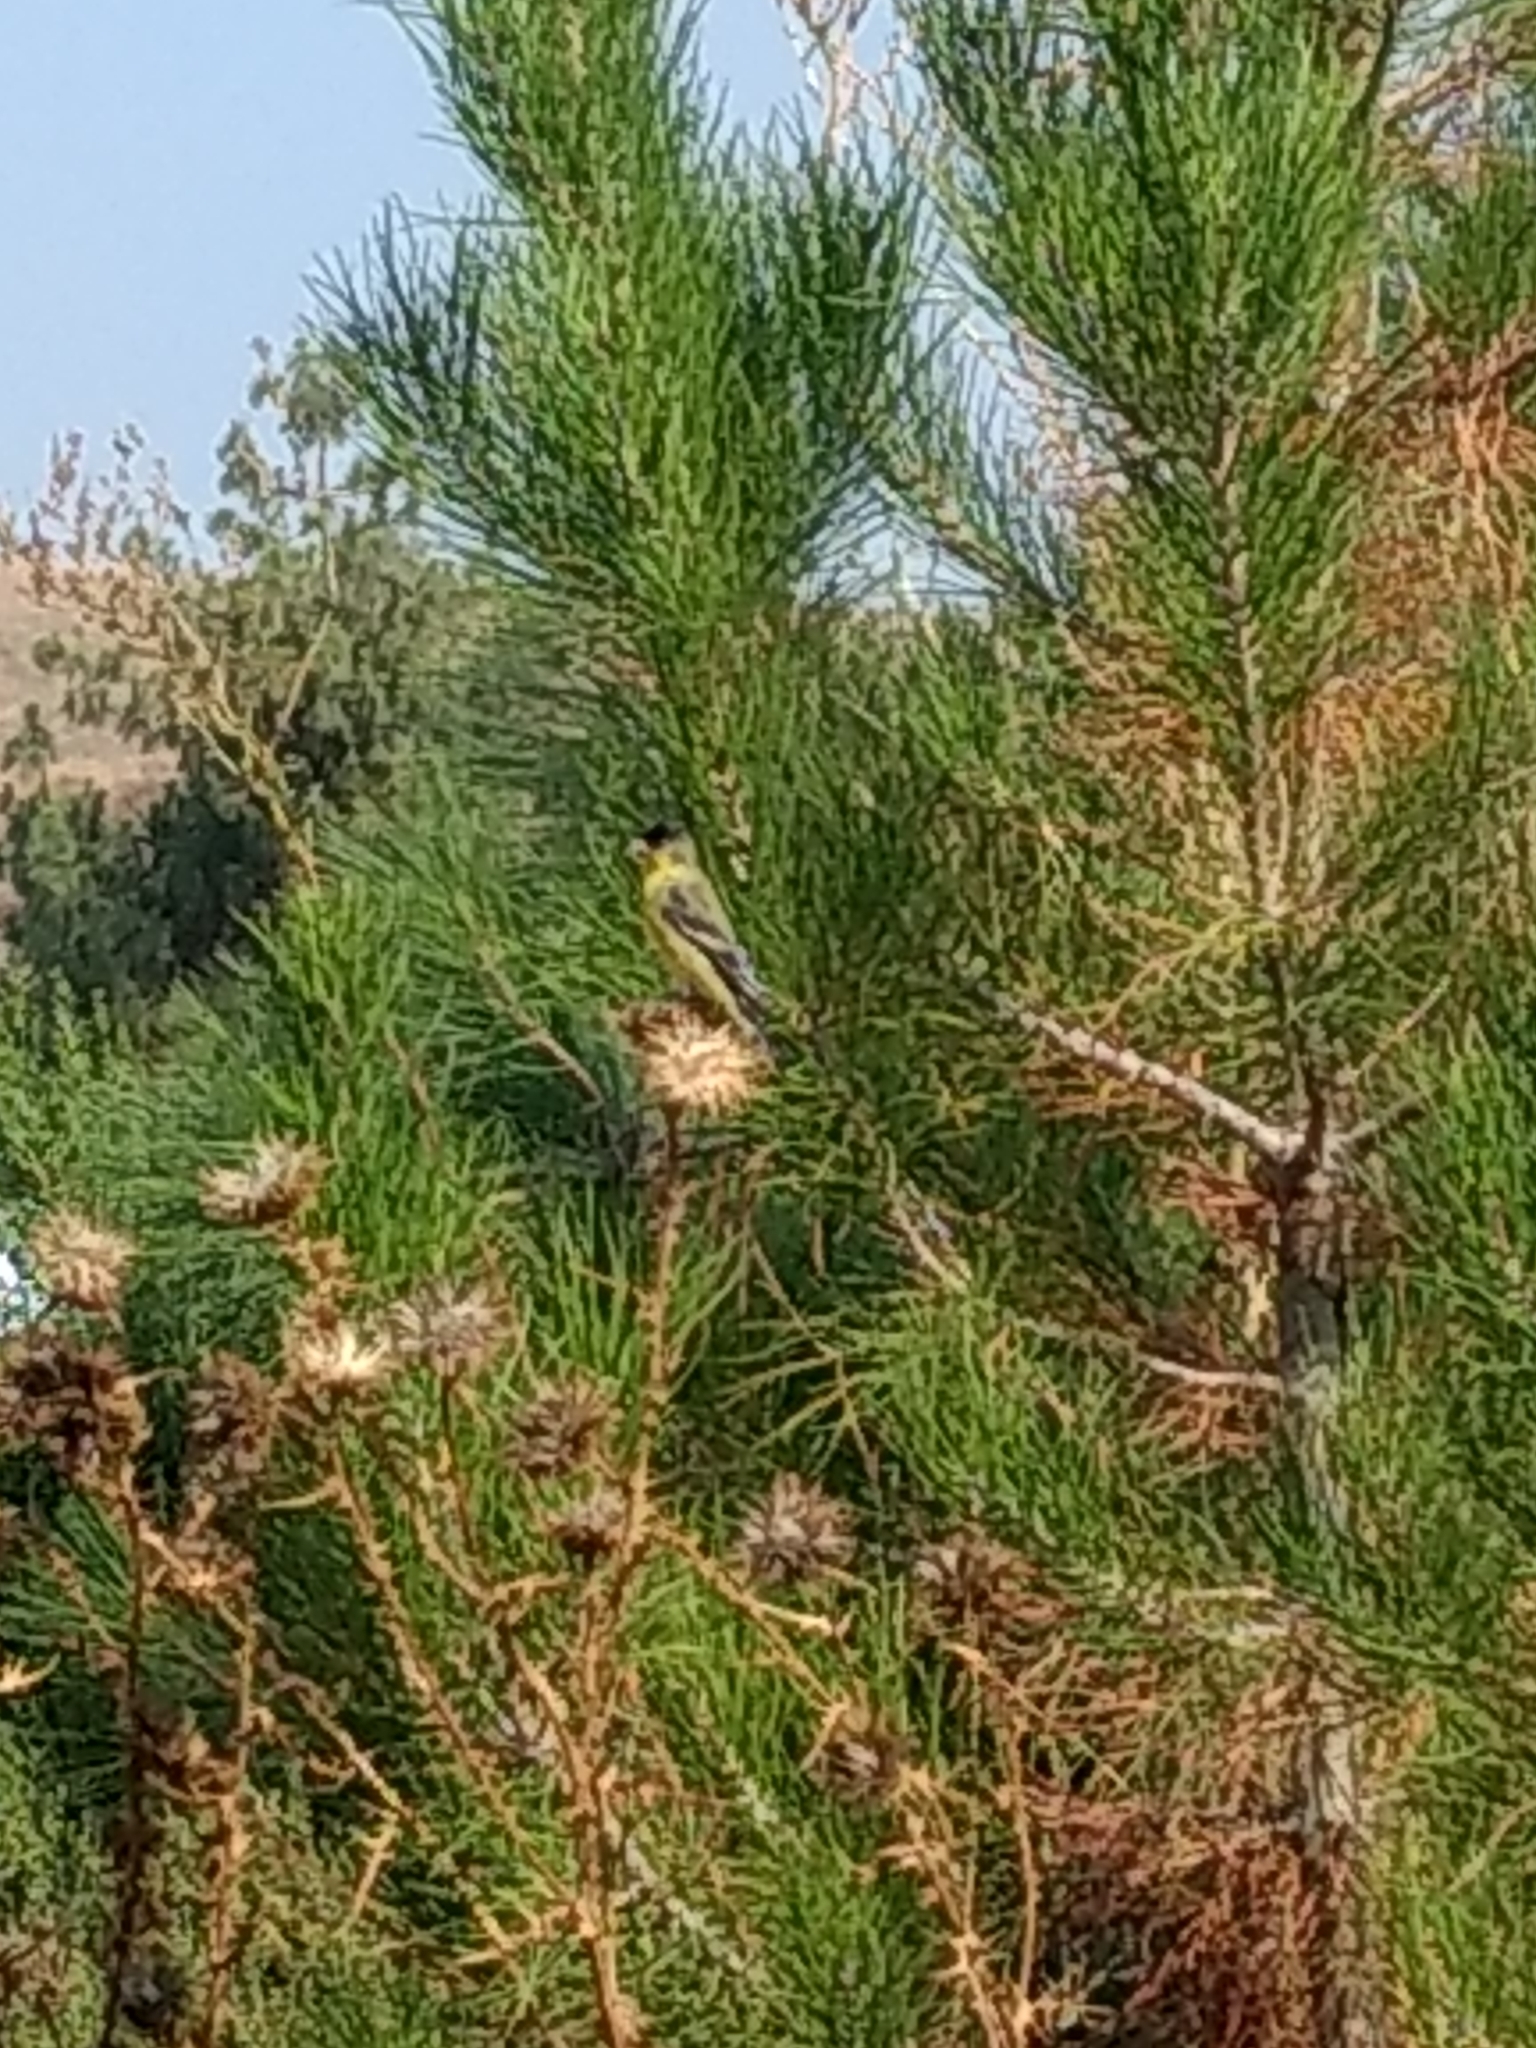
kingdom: Animalia
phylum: Chordata
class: Aves
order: Passeriformes
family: Fringillidae
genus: Spinus
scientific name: Spinus psaltria
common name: Lesser goldfinch
